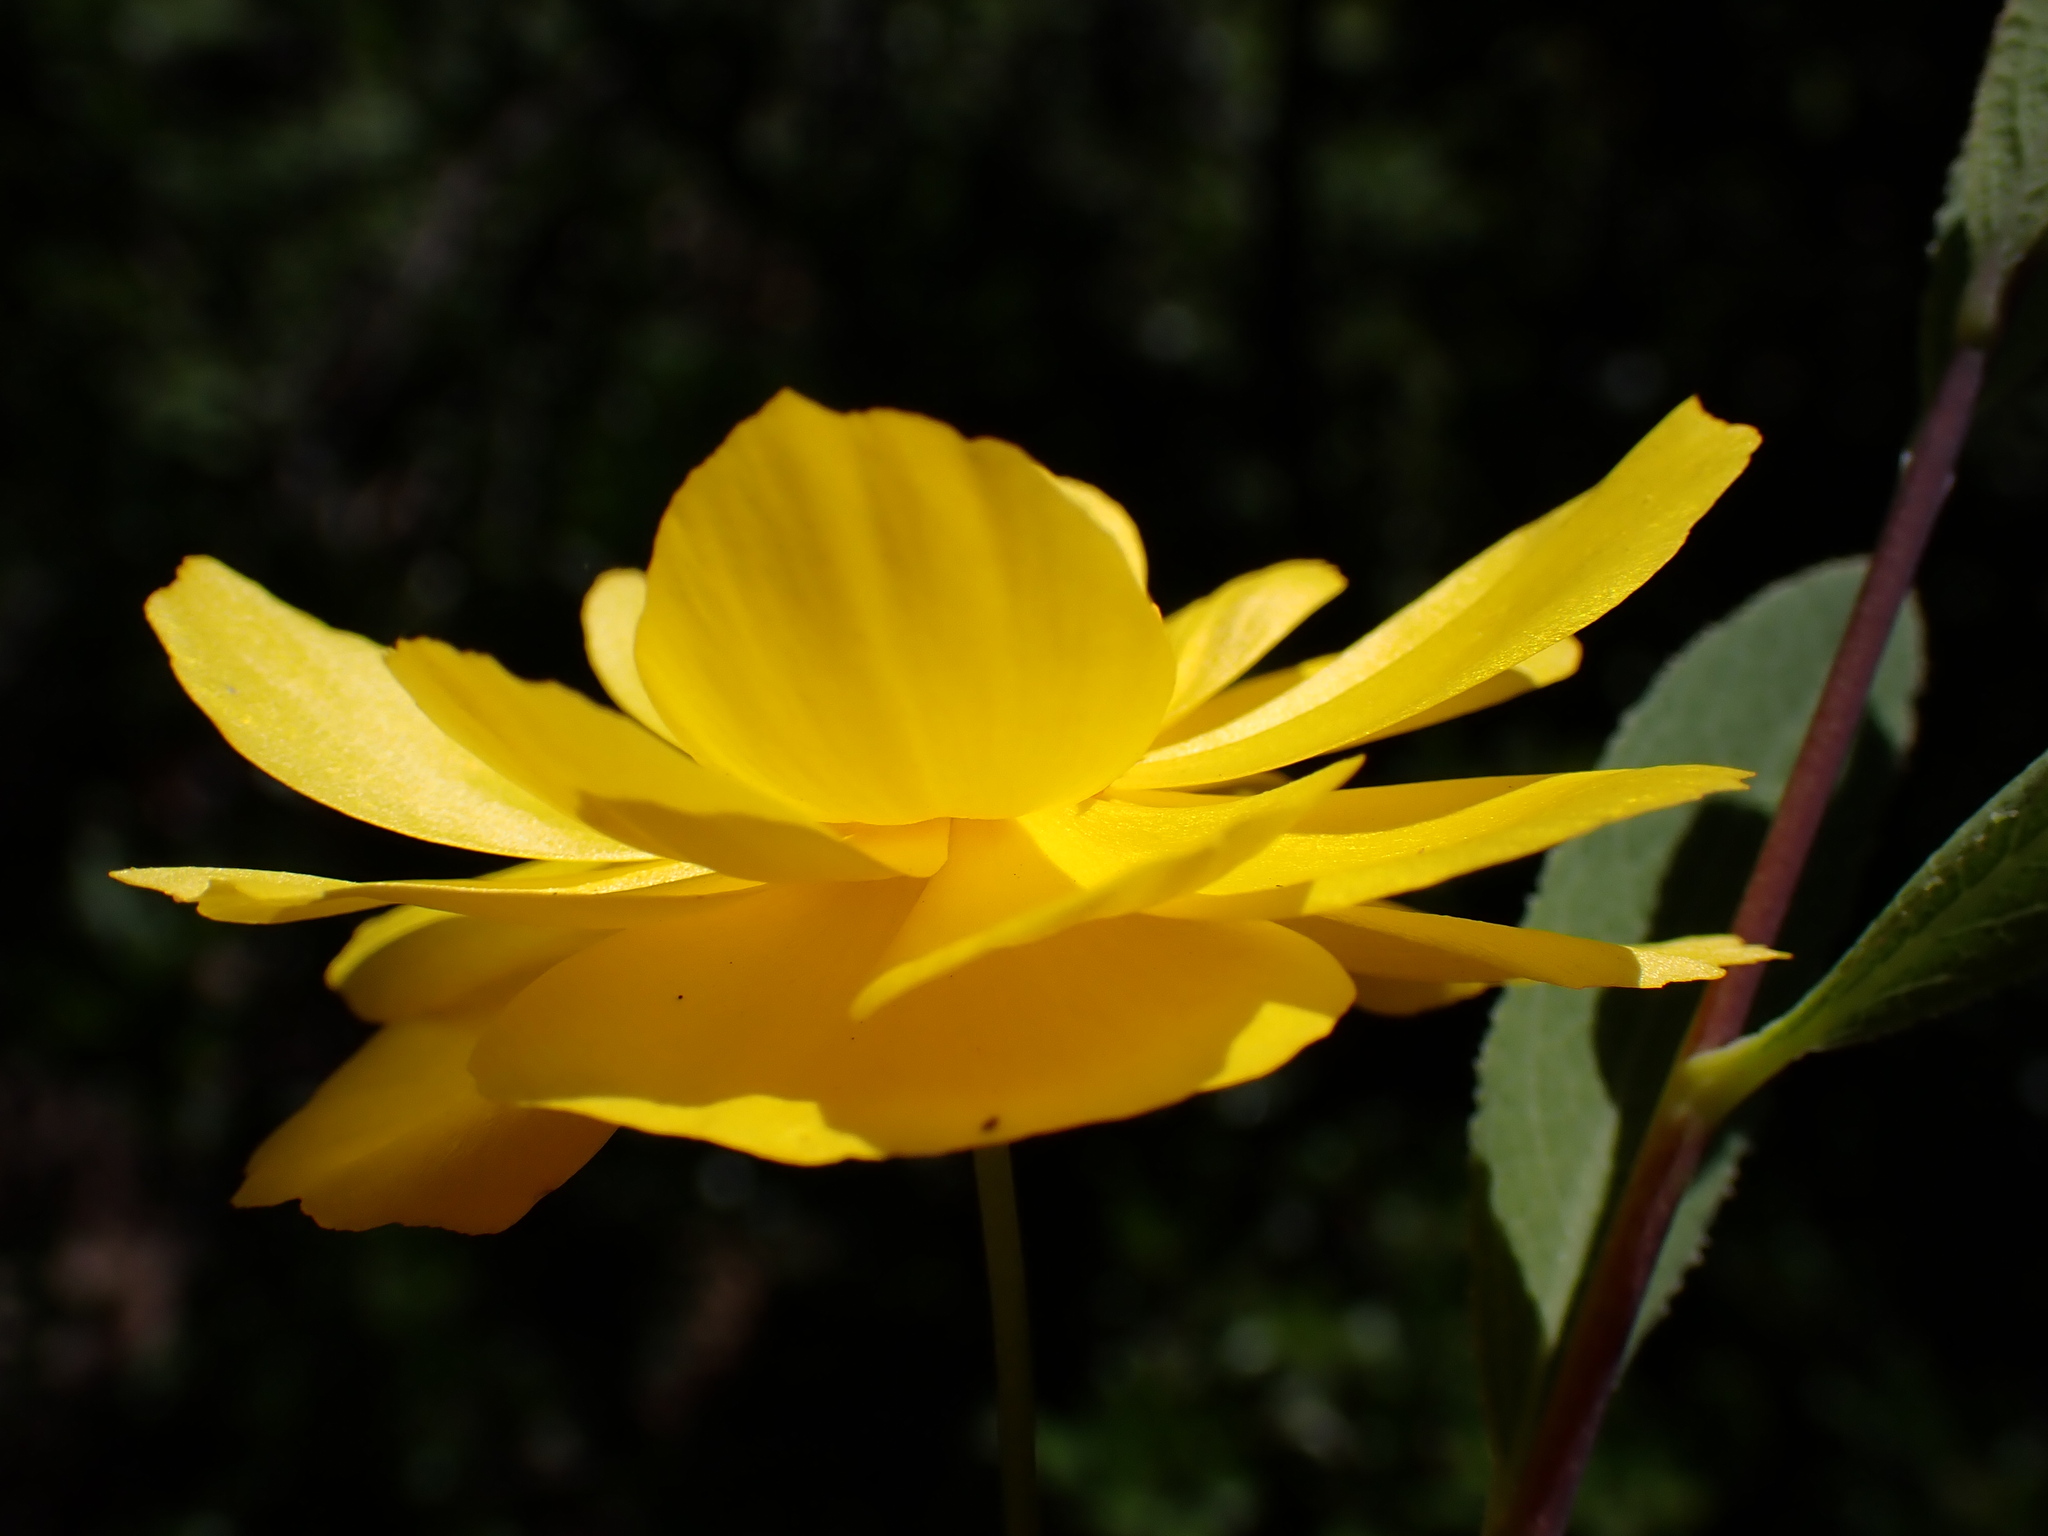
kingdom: Plantae
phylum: Tracheophyta
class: Magnoliopsida
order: Ranunculales
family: Papaveraceae
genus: Dendromecon
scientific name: Dendromecon rigida
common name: Tree poppy
